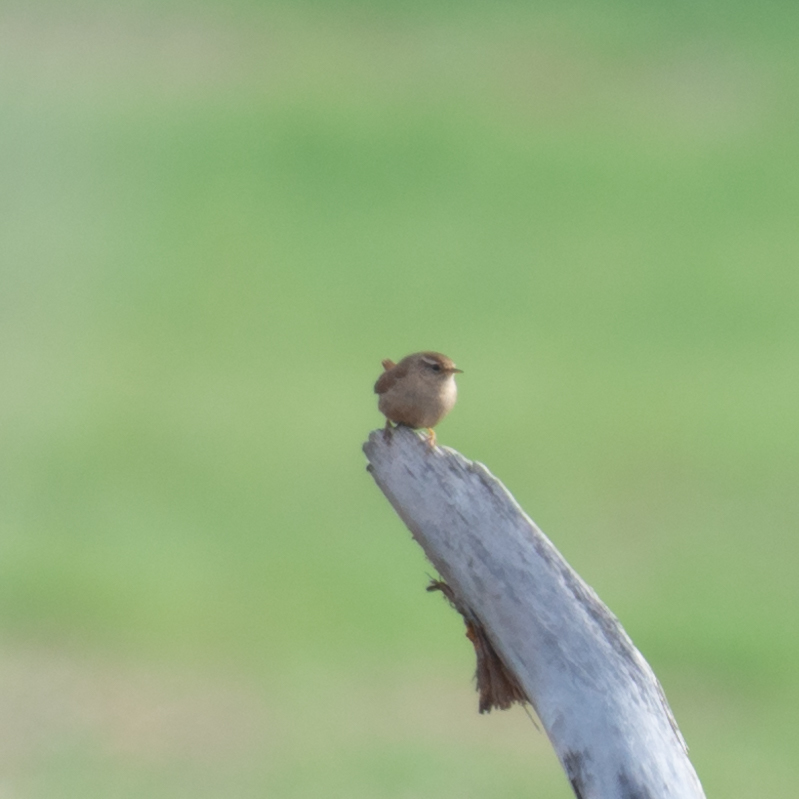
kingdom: Animalia
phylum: Chordata
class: Aves
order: Passeriformes
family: Troglodytidae
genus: Troglodytes
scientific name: Troglodytes troglodytes
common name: Eurasian wren
